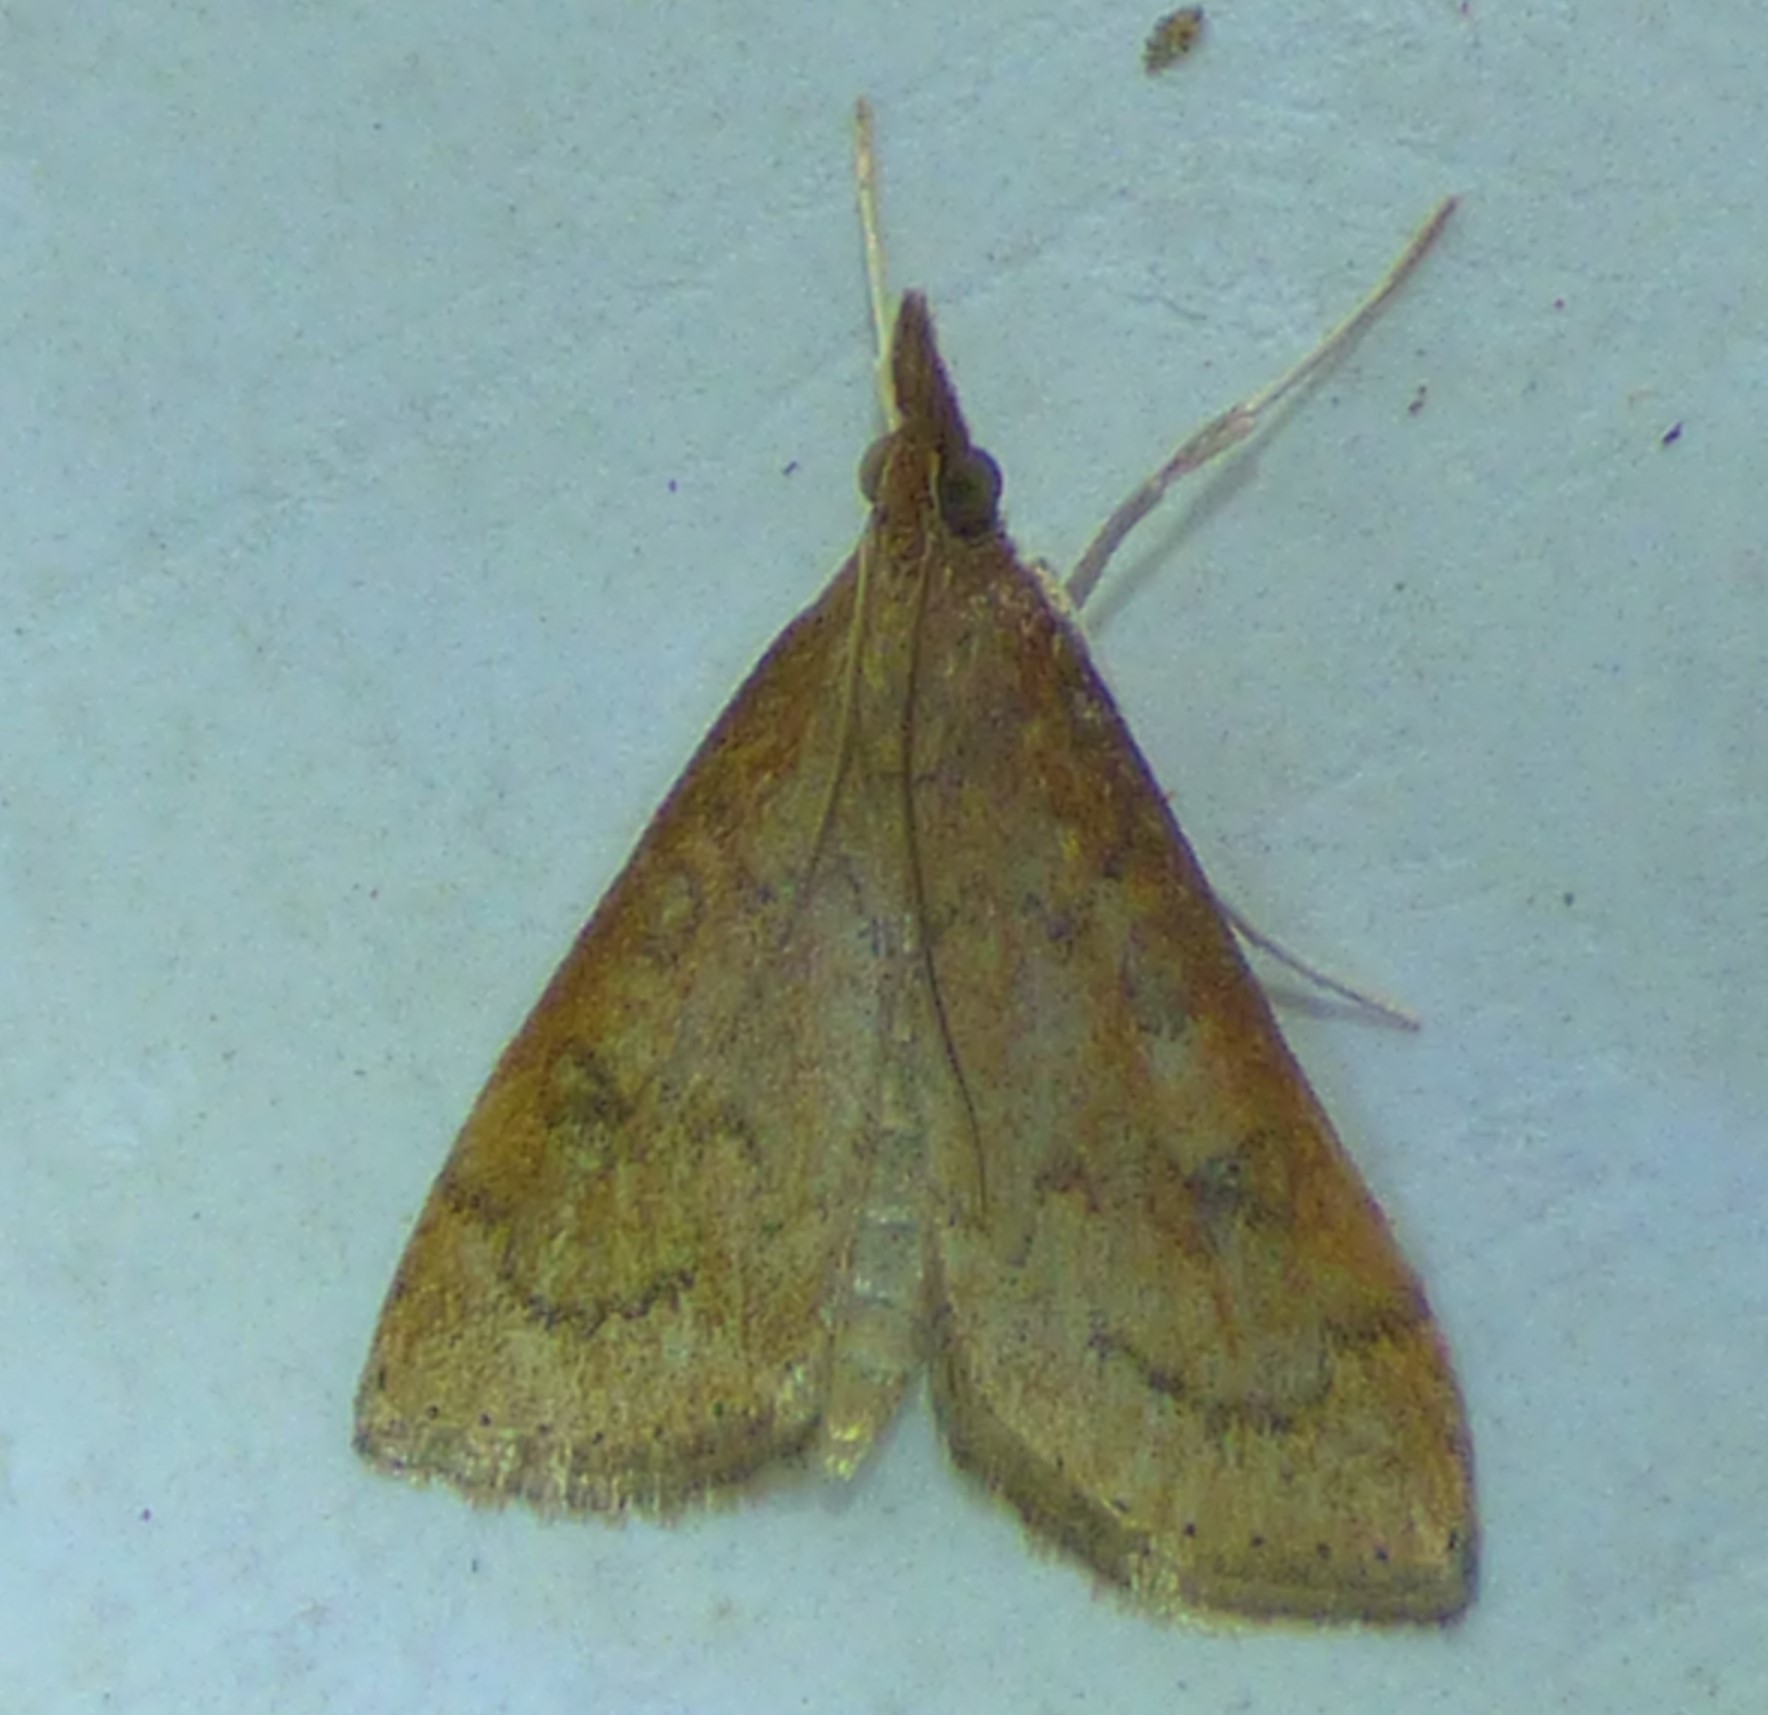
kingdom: Animalia
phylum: Arthropoda
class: Insecta
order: Lepidoptera
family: Crambidae
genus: Udea
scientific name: Udea rubigalis
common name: Celery leaftier moth
